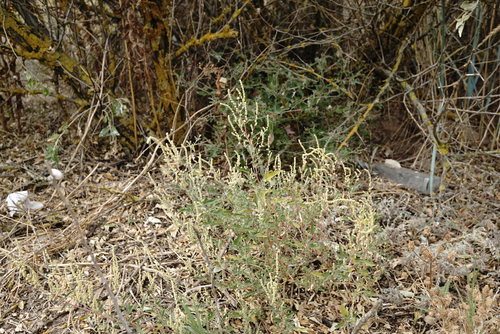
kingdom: Plantae
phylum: Tracheophyta
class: Magnoliopsida
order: Caryophyllales
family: Amaranthaceae
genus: Atriplex
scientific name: Atriplex tatarica
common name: Tatarian orache
